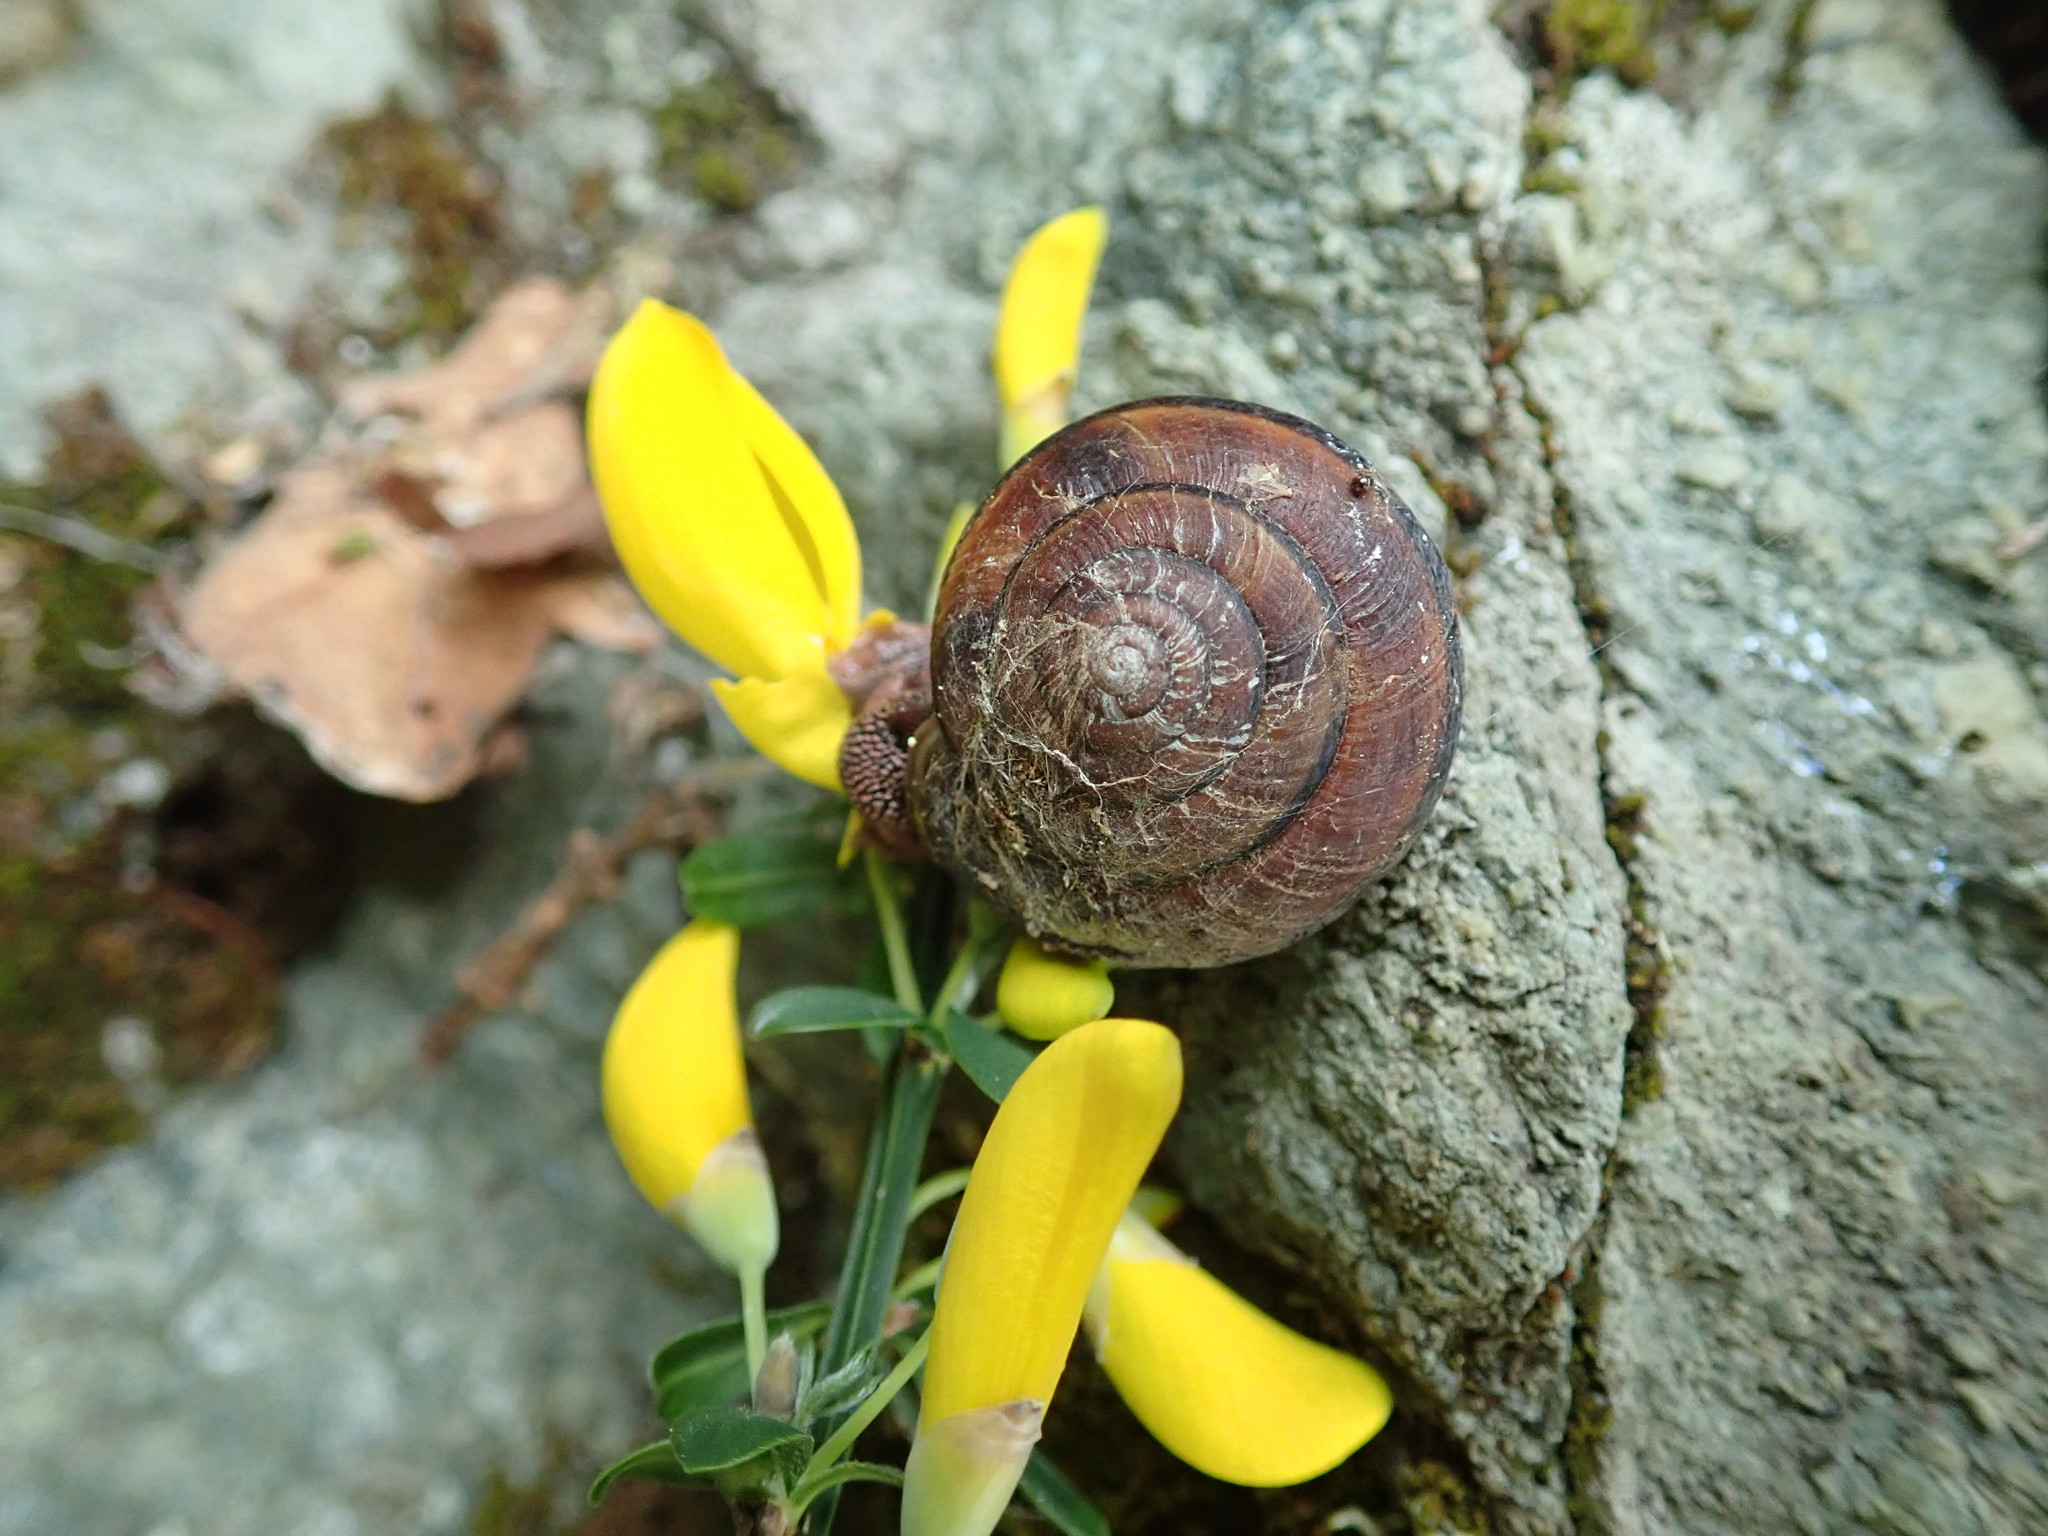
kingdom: Animalia
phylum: Mollusca
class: Gastropoda
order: Stylommatophora
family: Xanthonychidae
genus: Monadenia
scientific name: Monadenia fidelis
